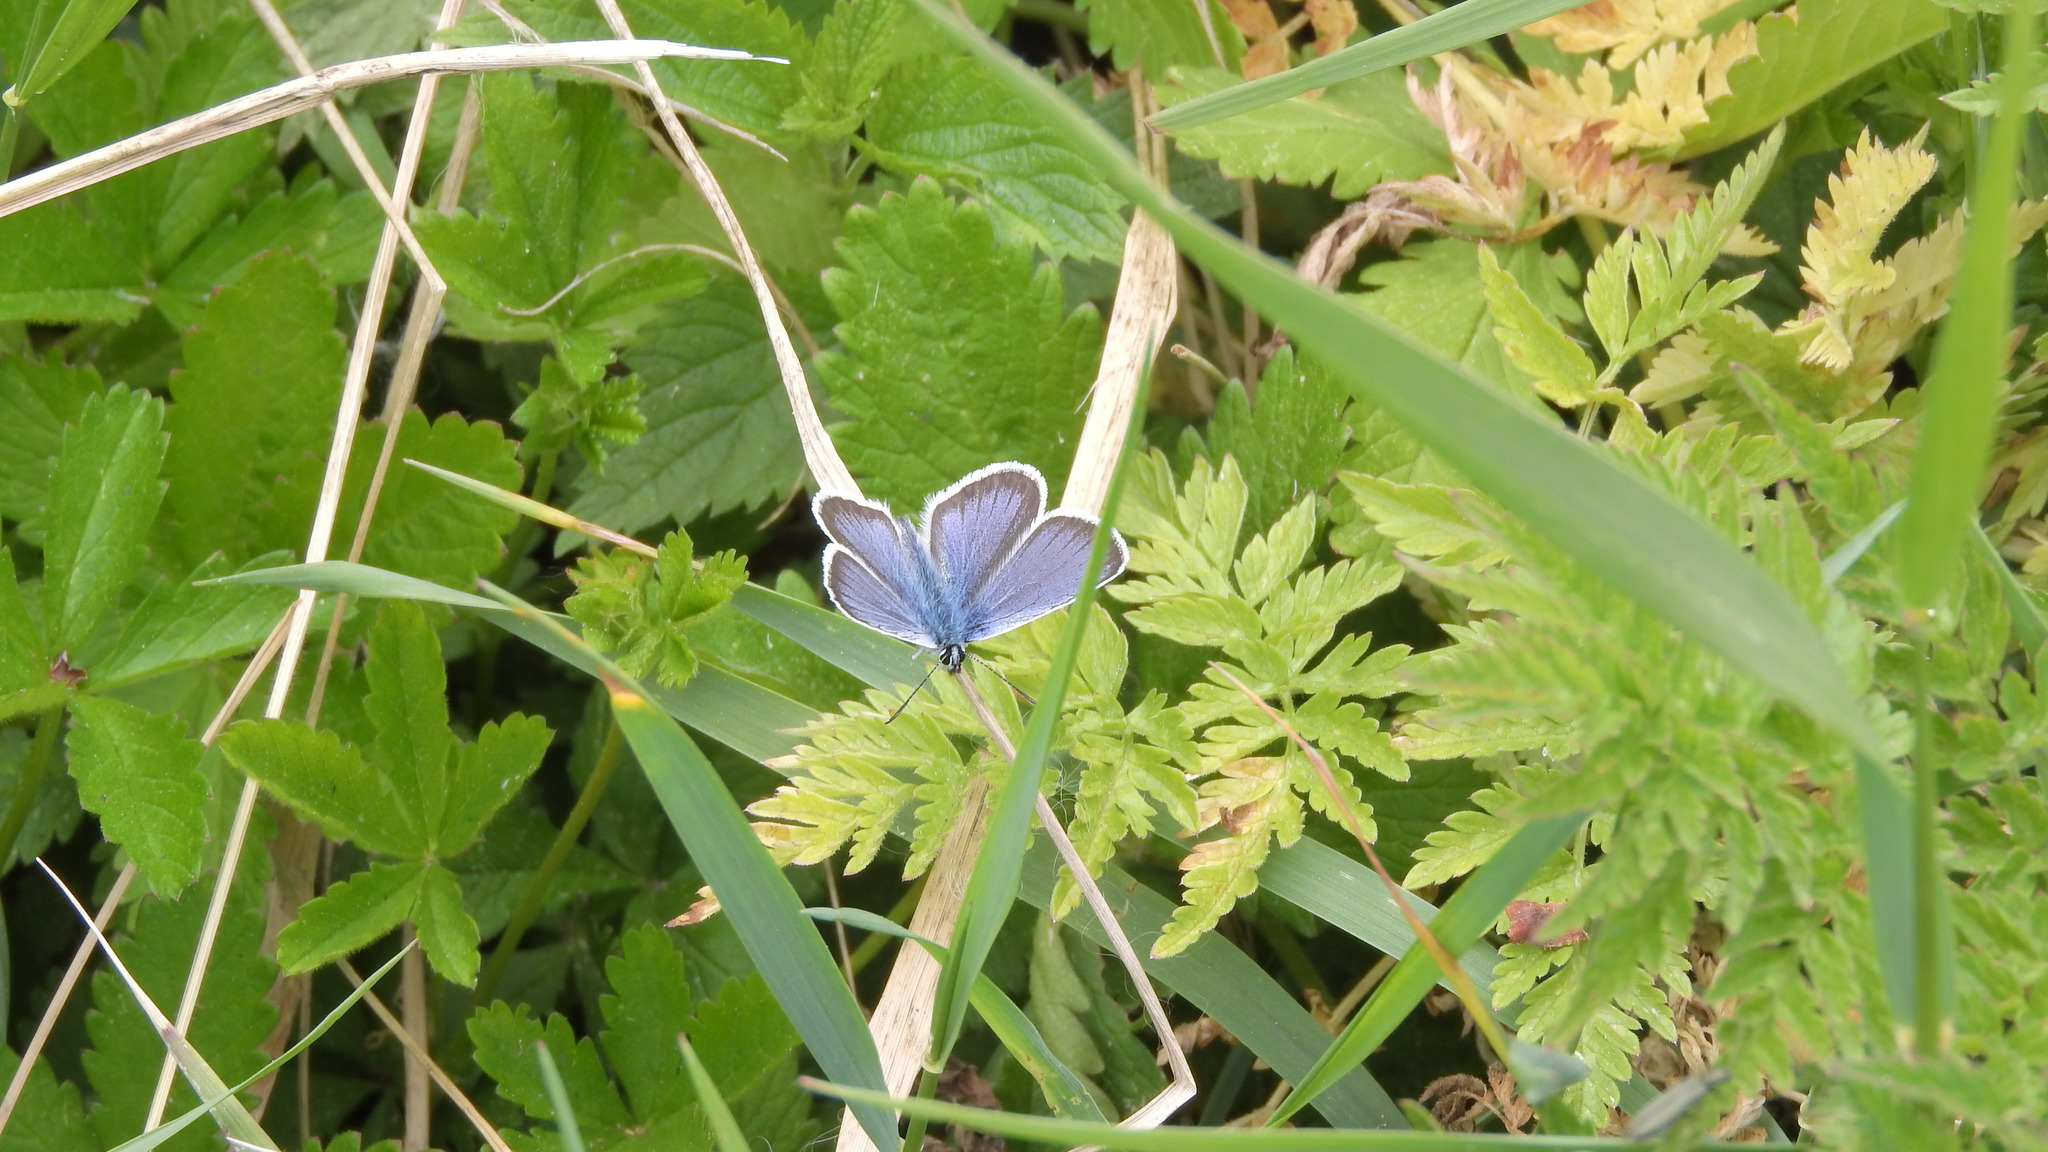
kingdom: Animalia
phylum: Arthropoda
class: Insecta
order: Lepidoptera
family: Lycaenidae
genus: Plebejus
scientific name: Plebejus argus
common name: Silver-studded blue
